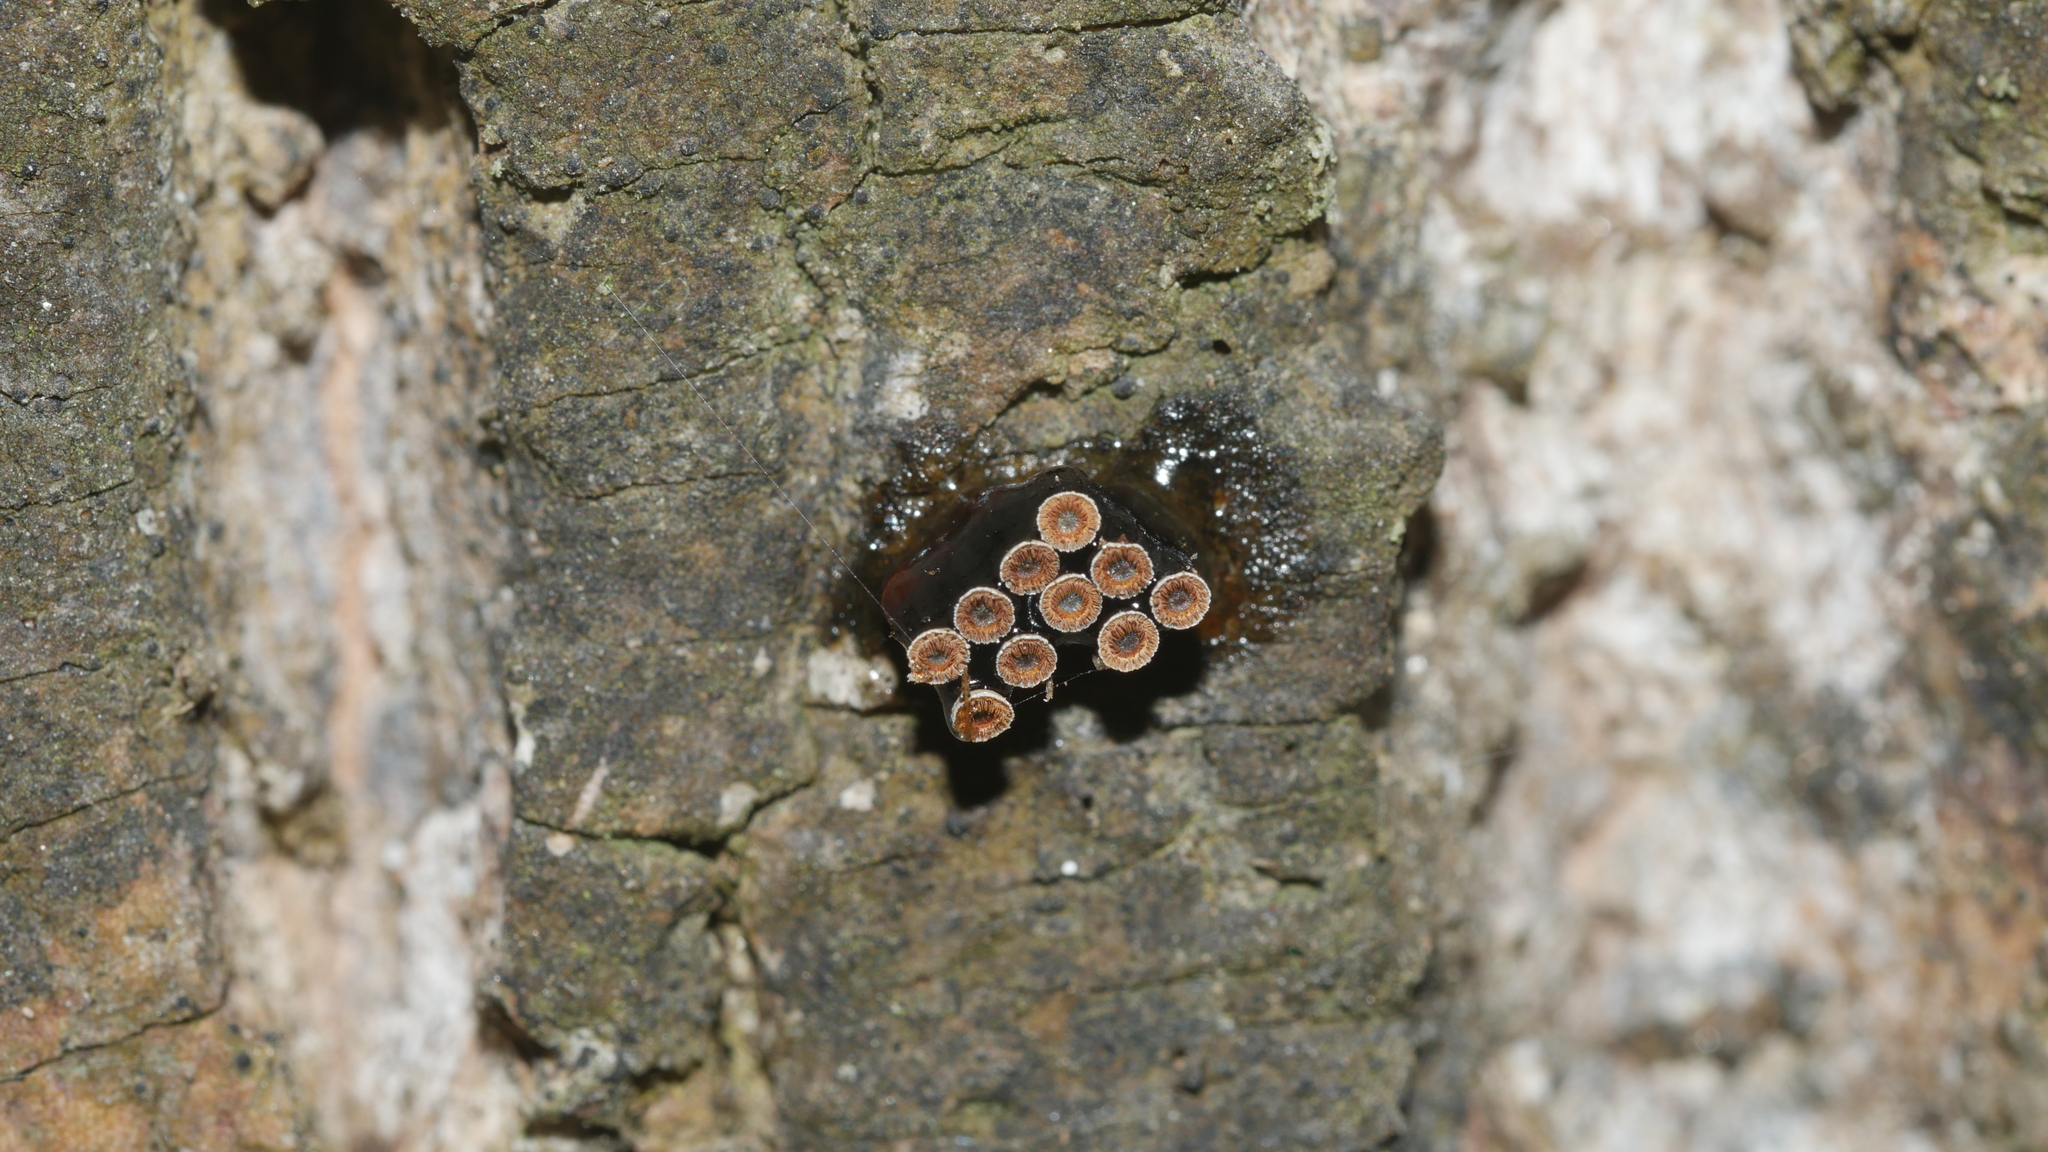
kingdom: Animalia
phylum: Arthropoda
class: Insecta
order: Hemiptera
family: Reduviidae
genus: Arilus
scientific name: Arilus cristatus
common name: North american wheel bug
